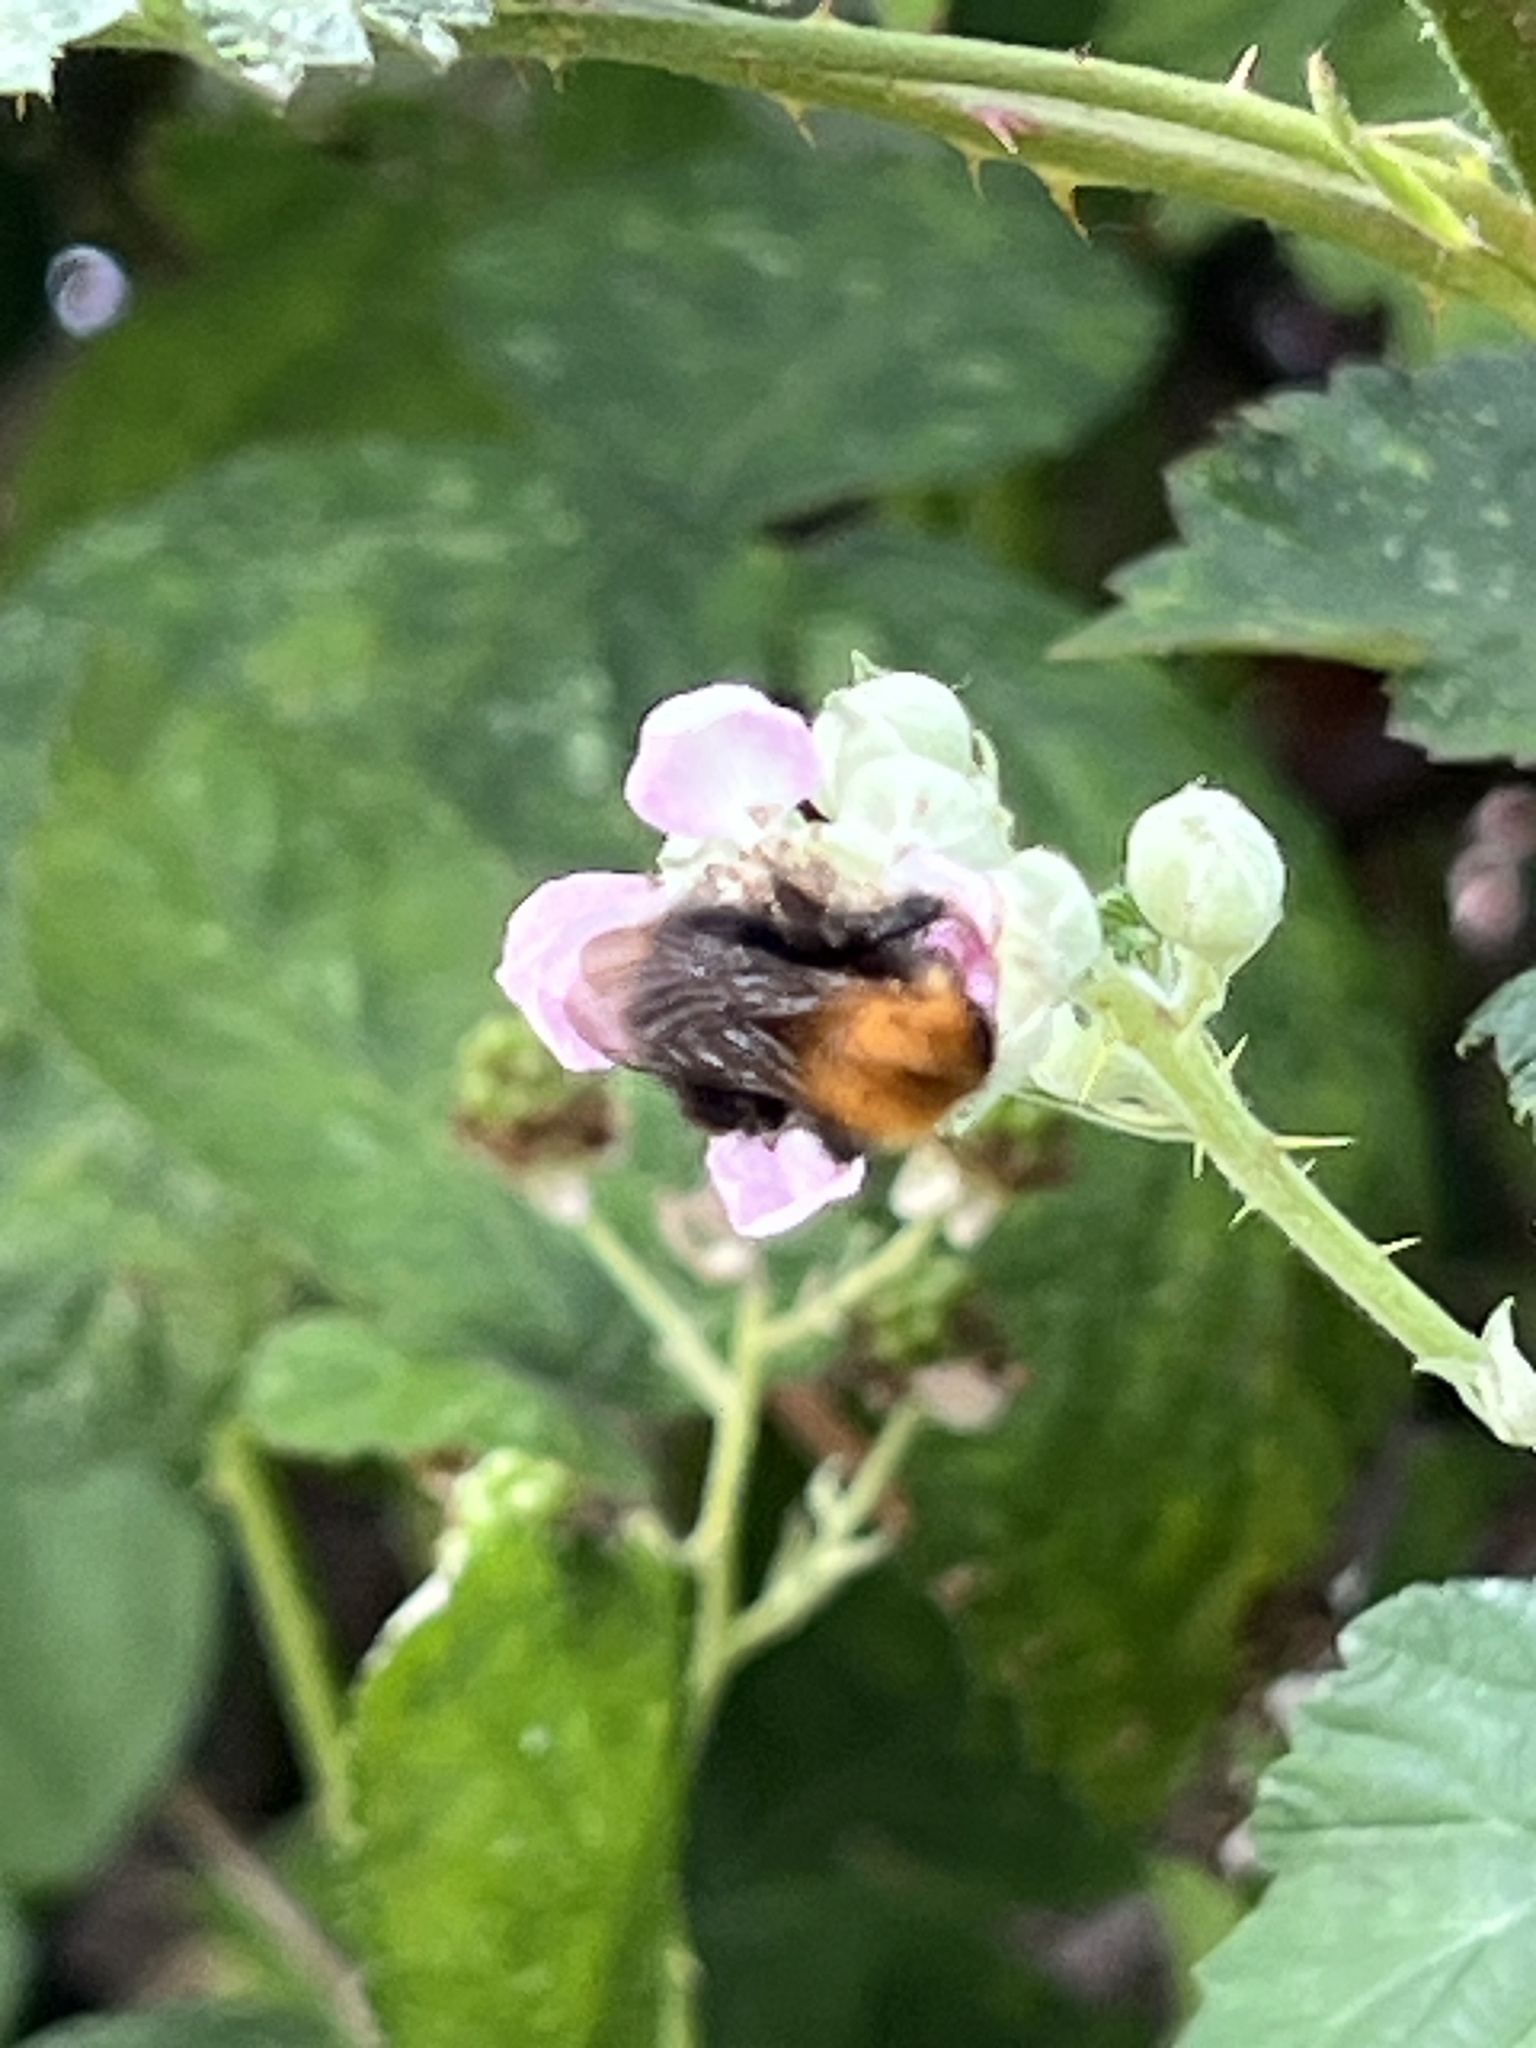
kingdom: Animalia
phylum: Arthropoda
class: Insecta
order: Hymenoptera
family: Apidae
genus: Bombus
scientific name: Bombus pascuorum
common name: Common carder bee
